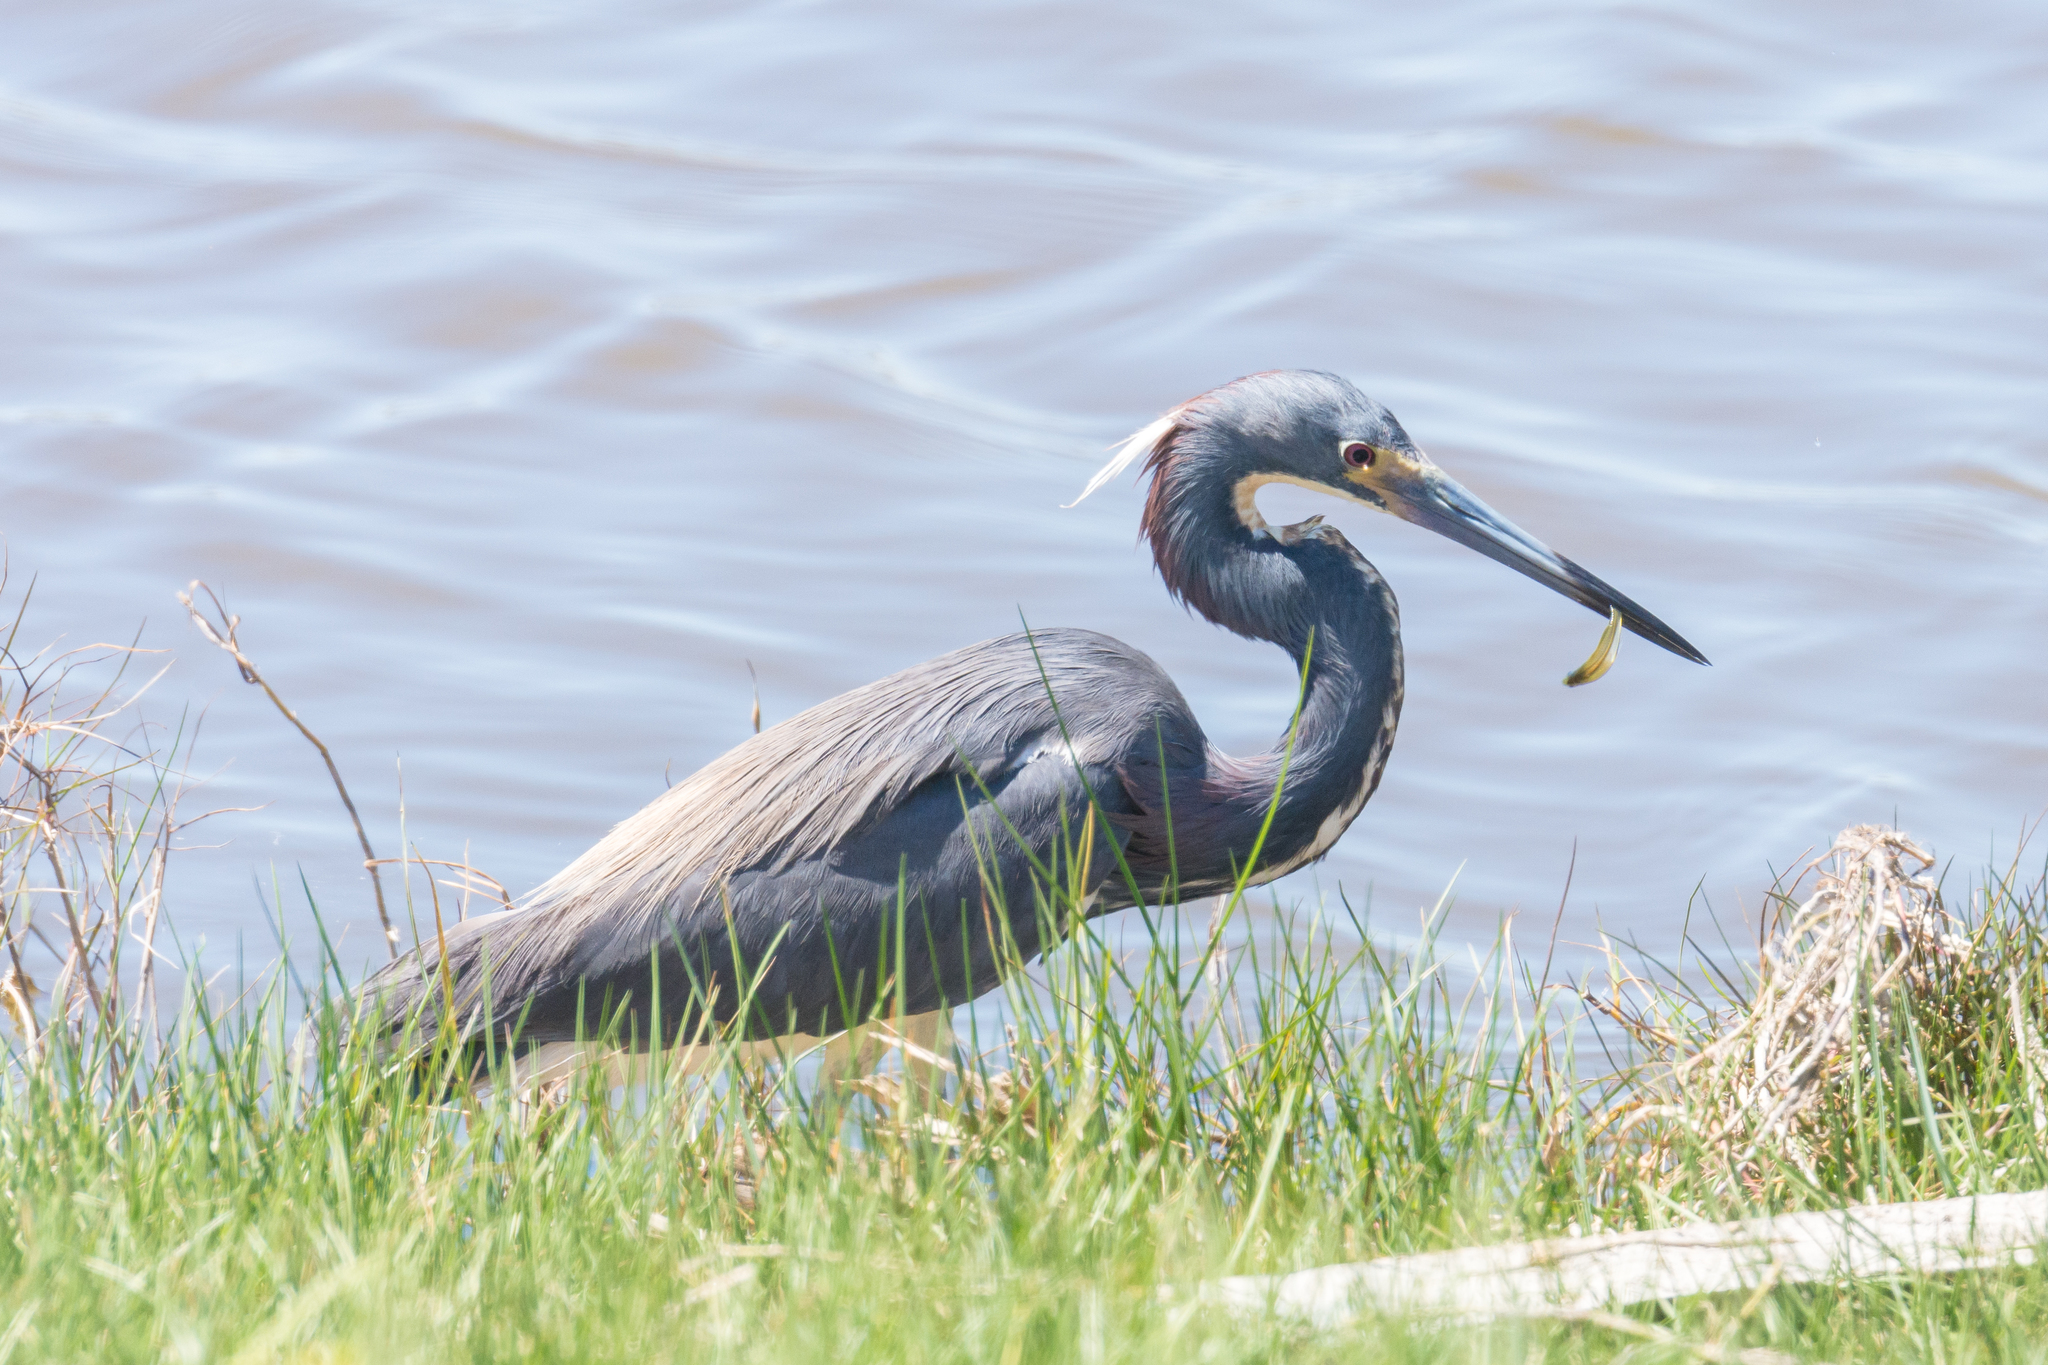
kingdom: Animalia
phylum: Chordata
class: Aves
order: Pelecaniformes
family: Ardeidae
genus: Egretta
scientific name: Egretta tricolor
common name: Tricolored heron
